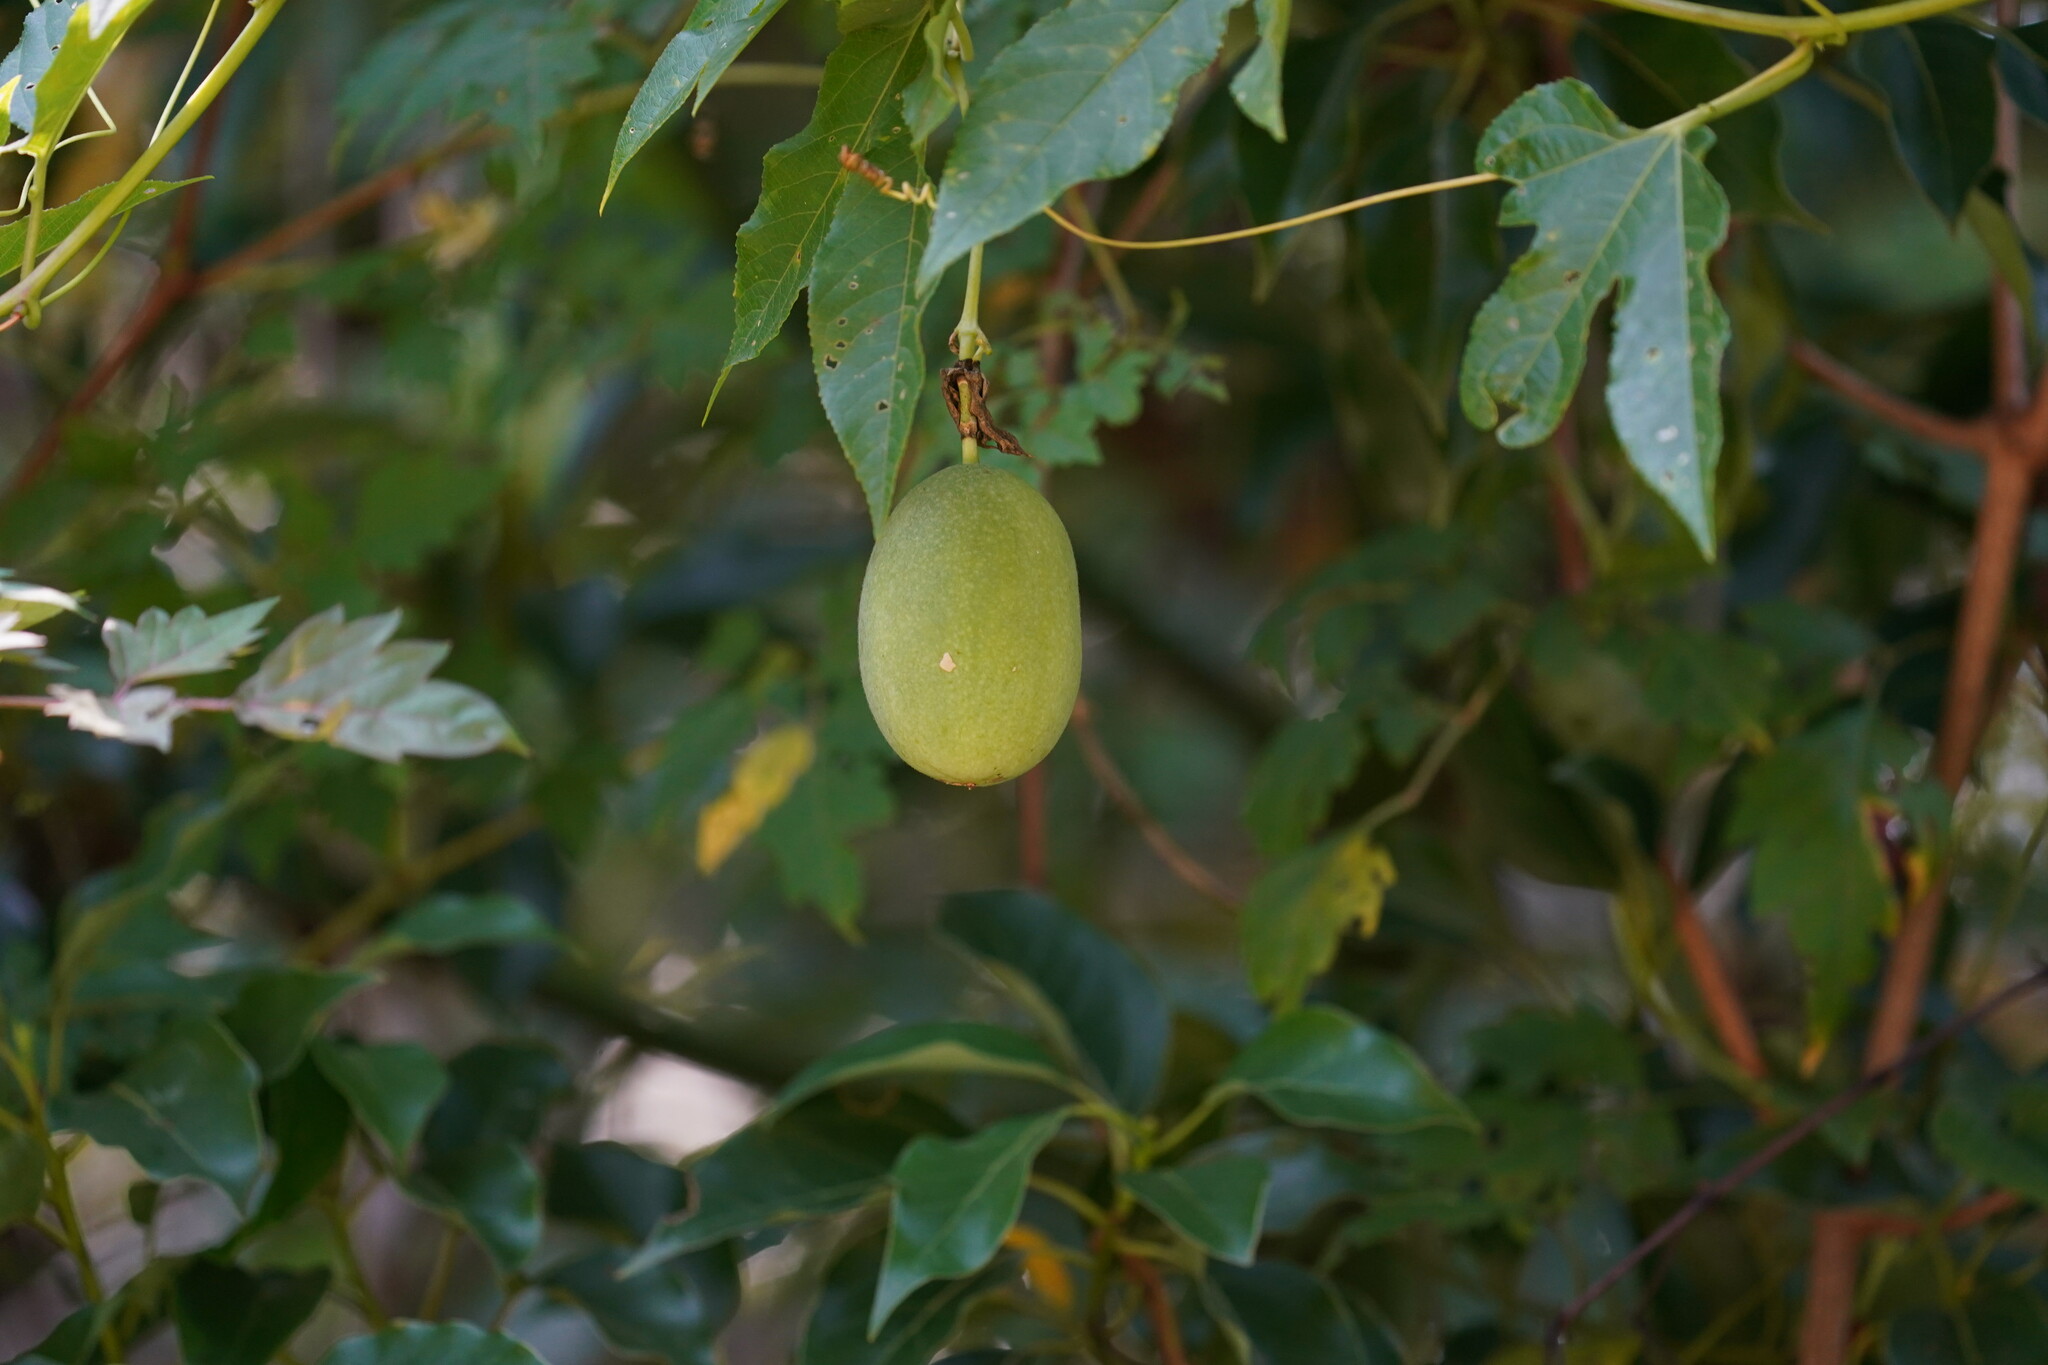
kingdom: Plantae
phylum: Tracheophyta
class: Magnoliopsida
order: Malpighiales
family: Passifloraceae
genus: Passiflora
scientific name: Passiflora incarnata
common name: Apricot-vine
